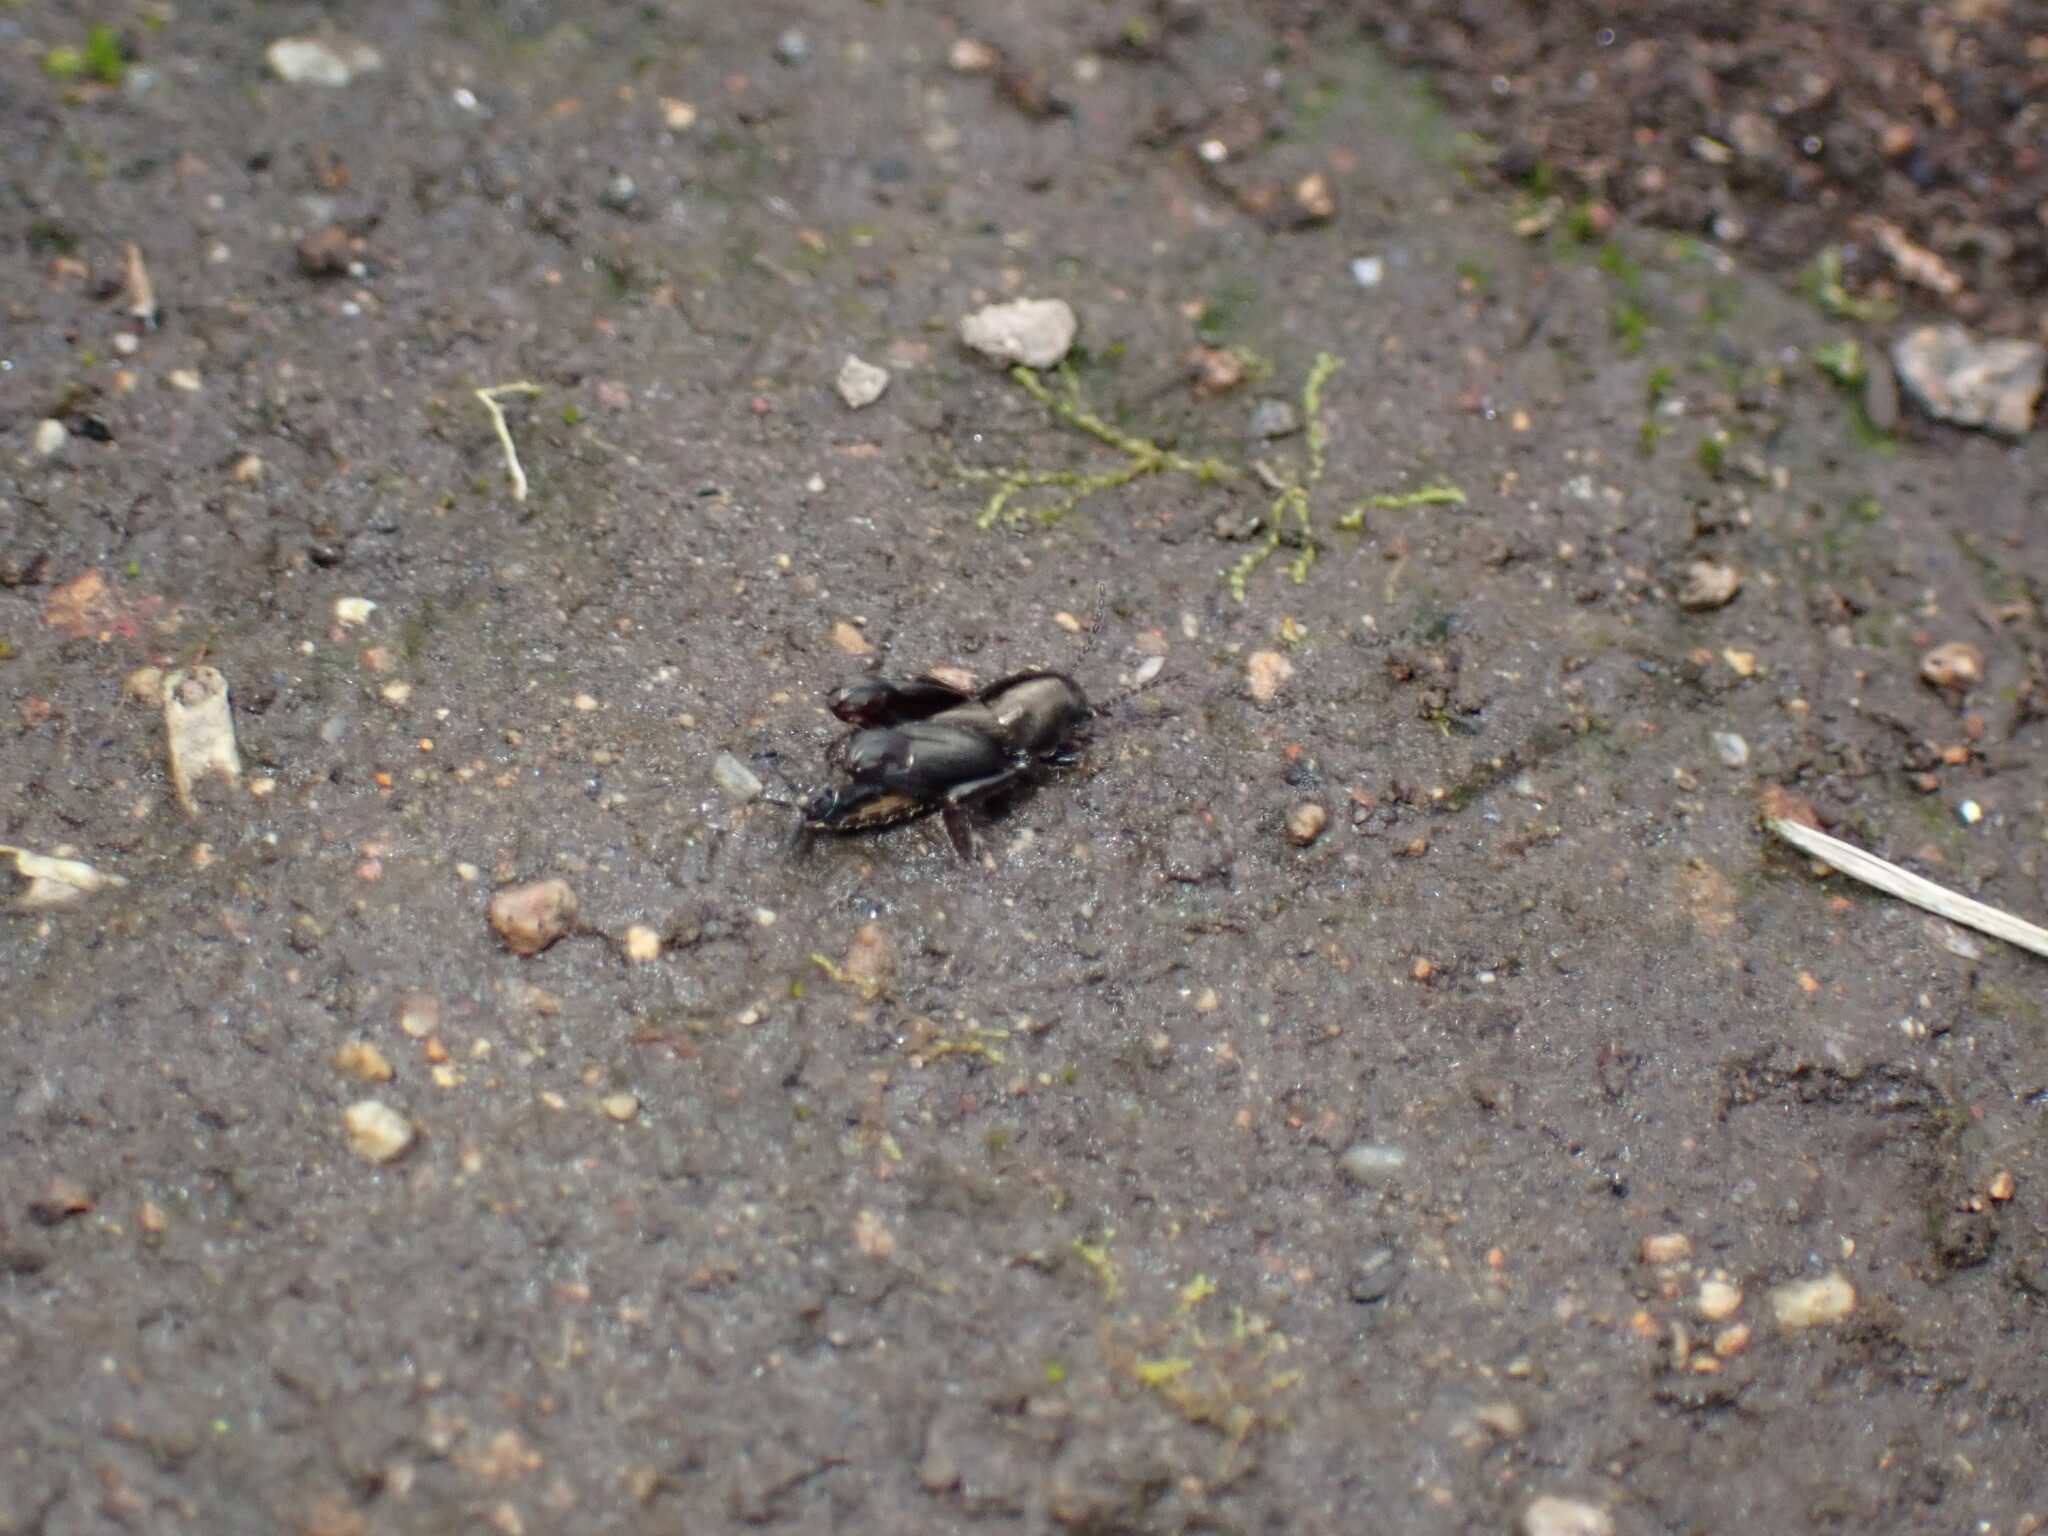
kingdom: Animalia
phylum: Arthropoda
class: Insecta
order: Orthoptera
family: Tridactylidae
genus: Xya
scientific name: Xya japonica
